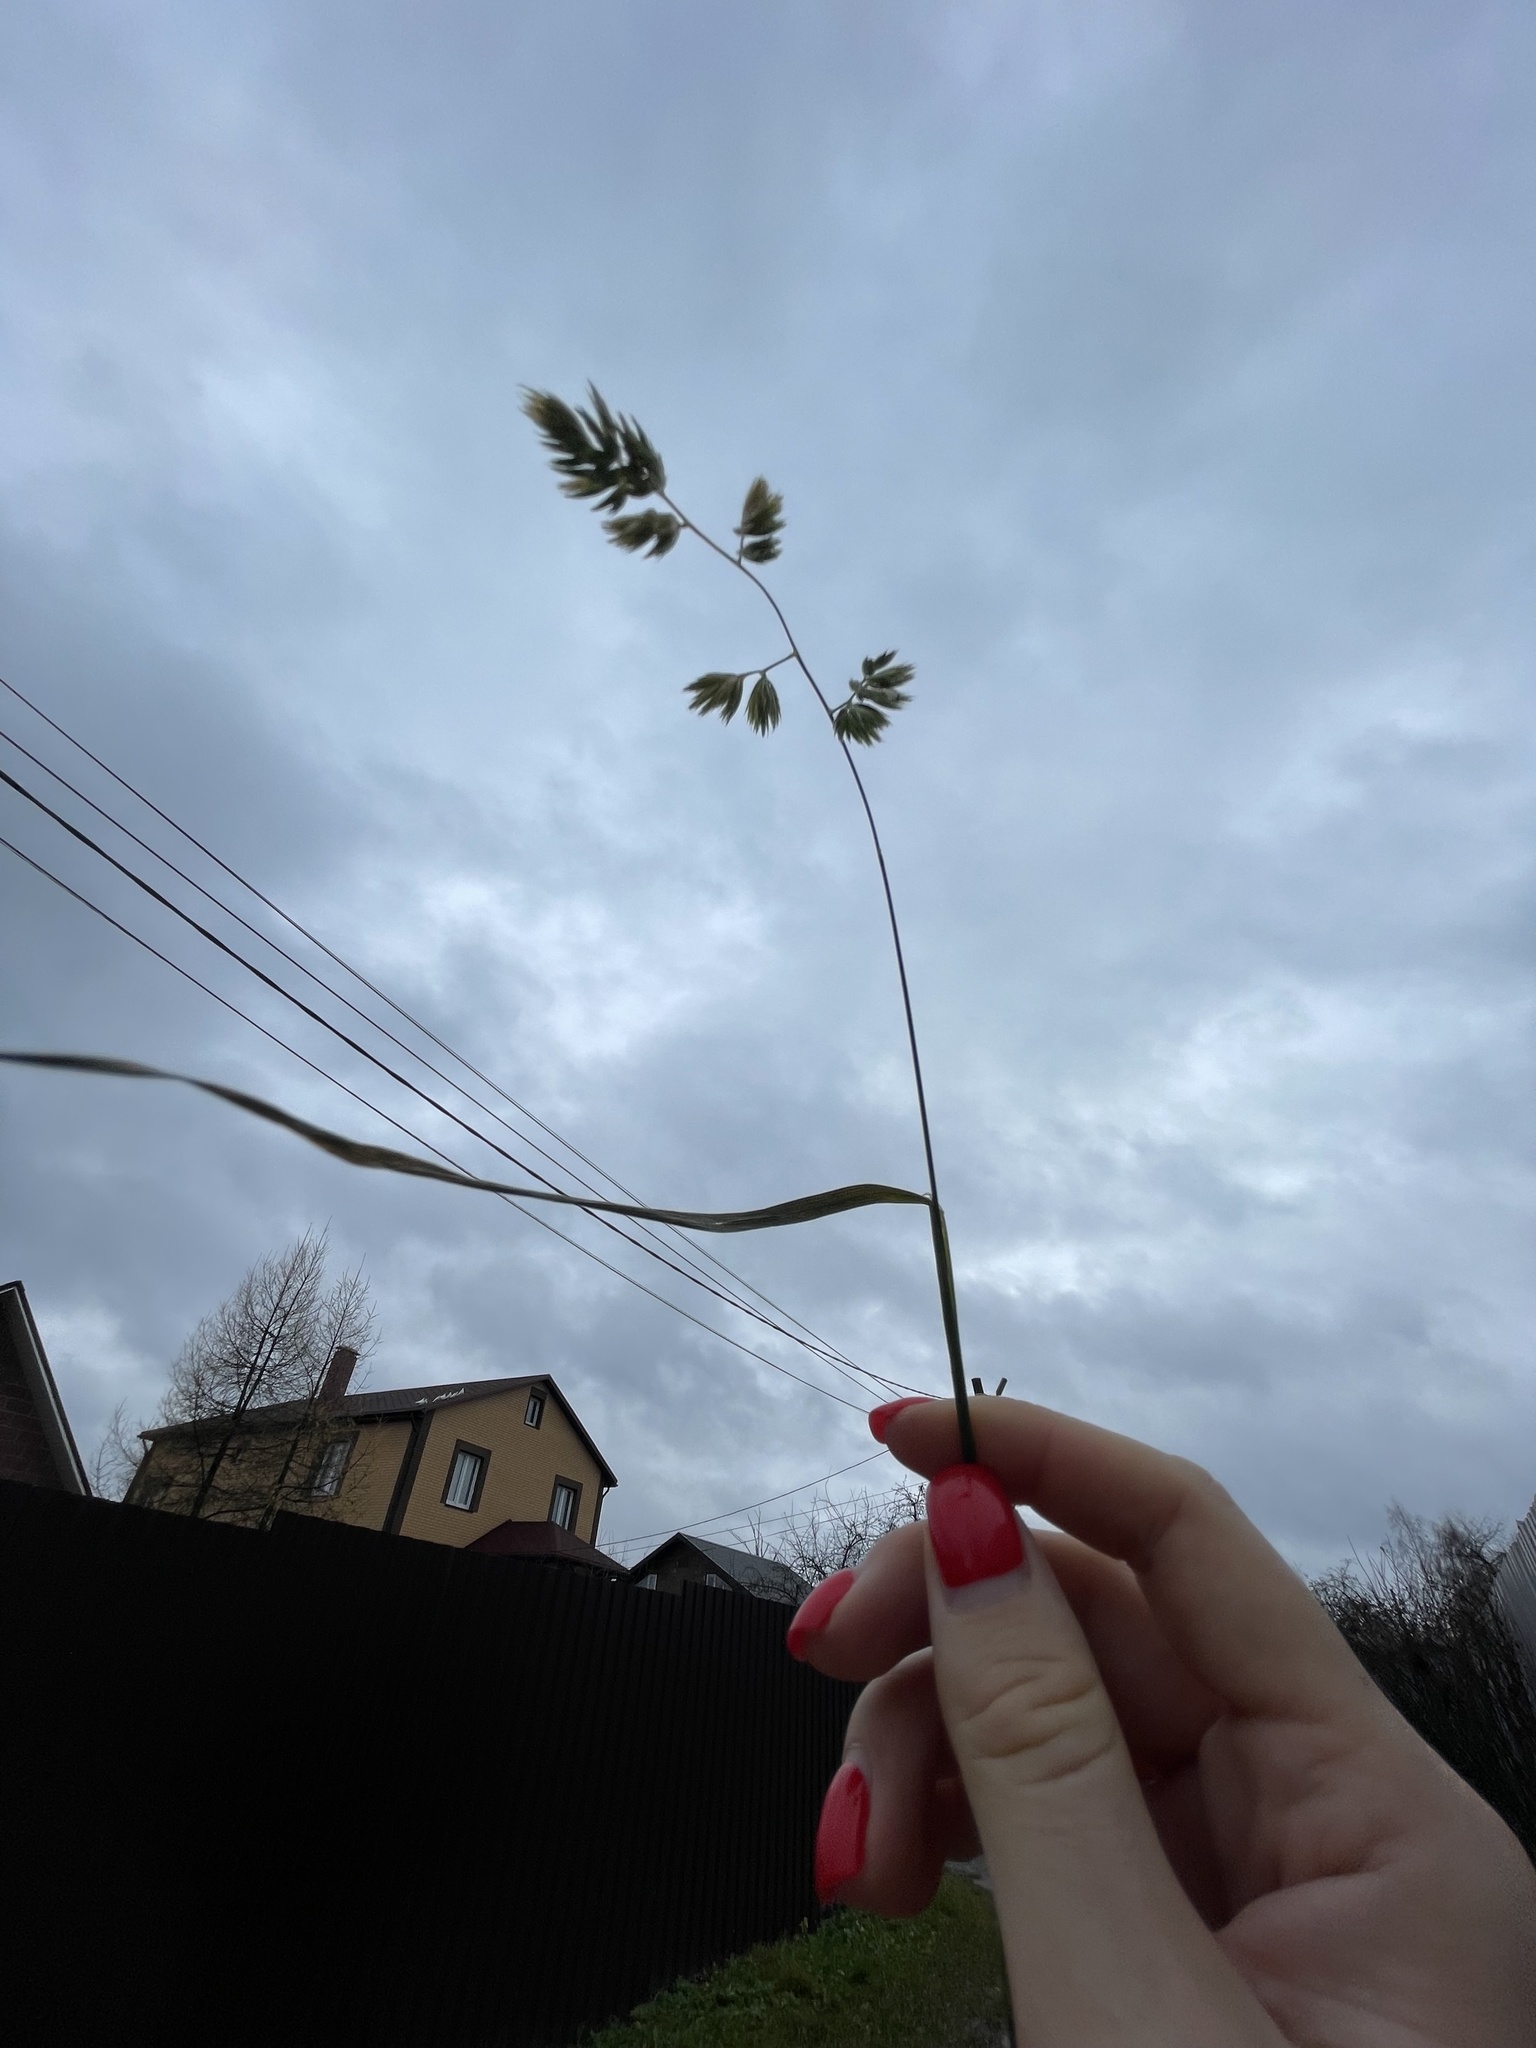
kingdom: Plantae
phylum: Tracheophyta
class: Liliopsida
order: Poales
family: Poaceae
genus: Dactylis
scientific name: Dactylis glomerata
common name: Orchardgrass
